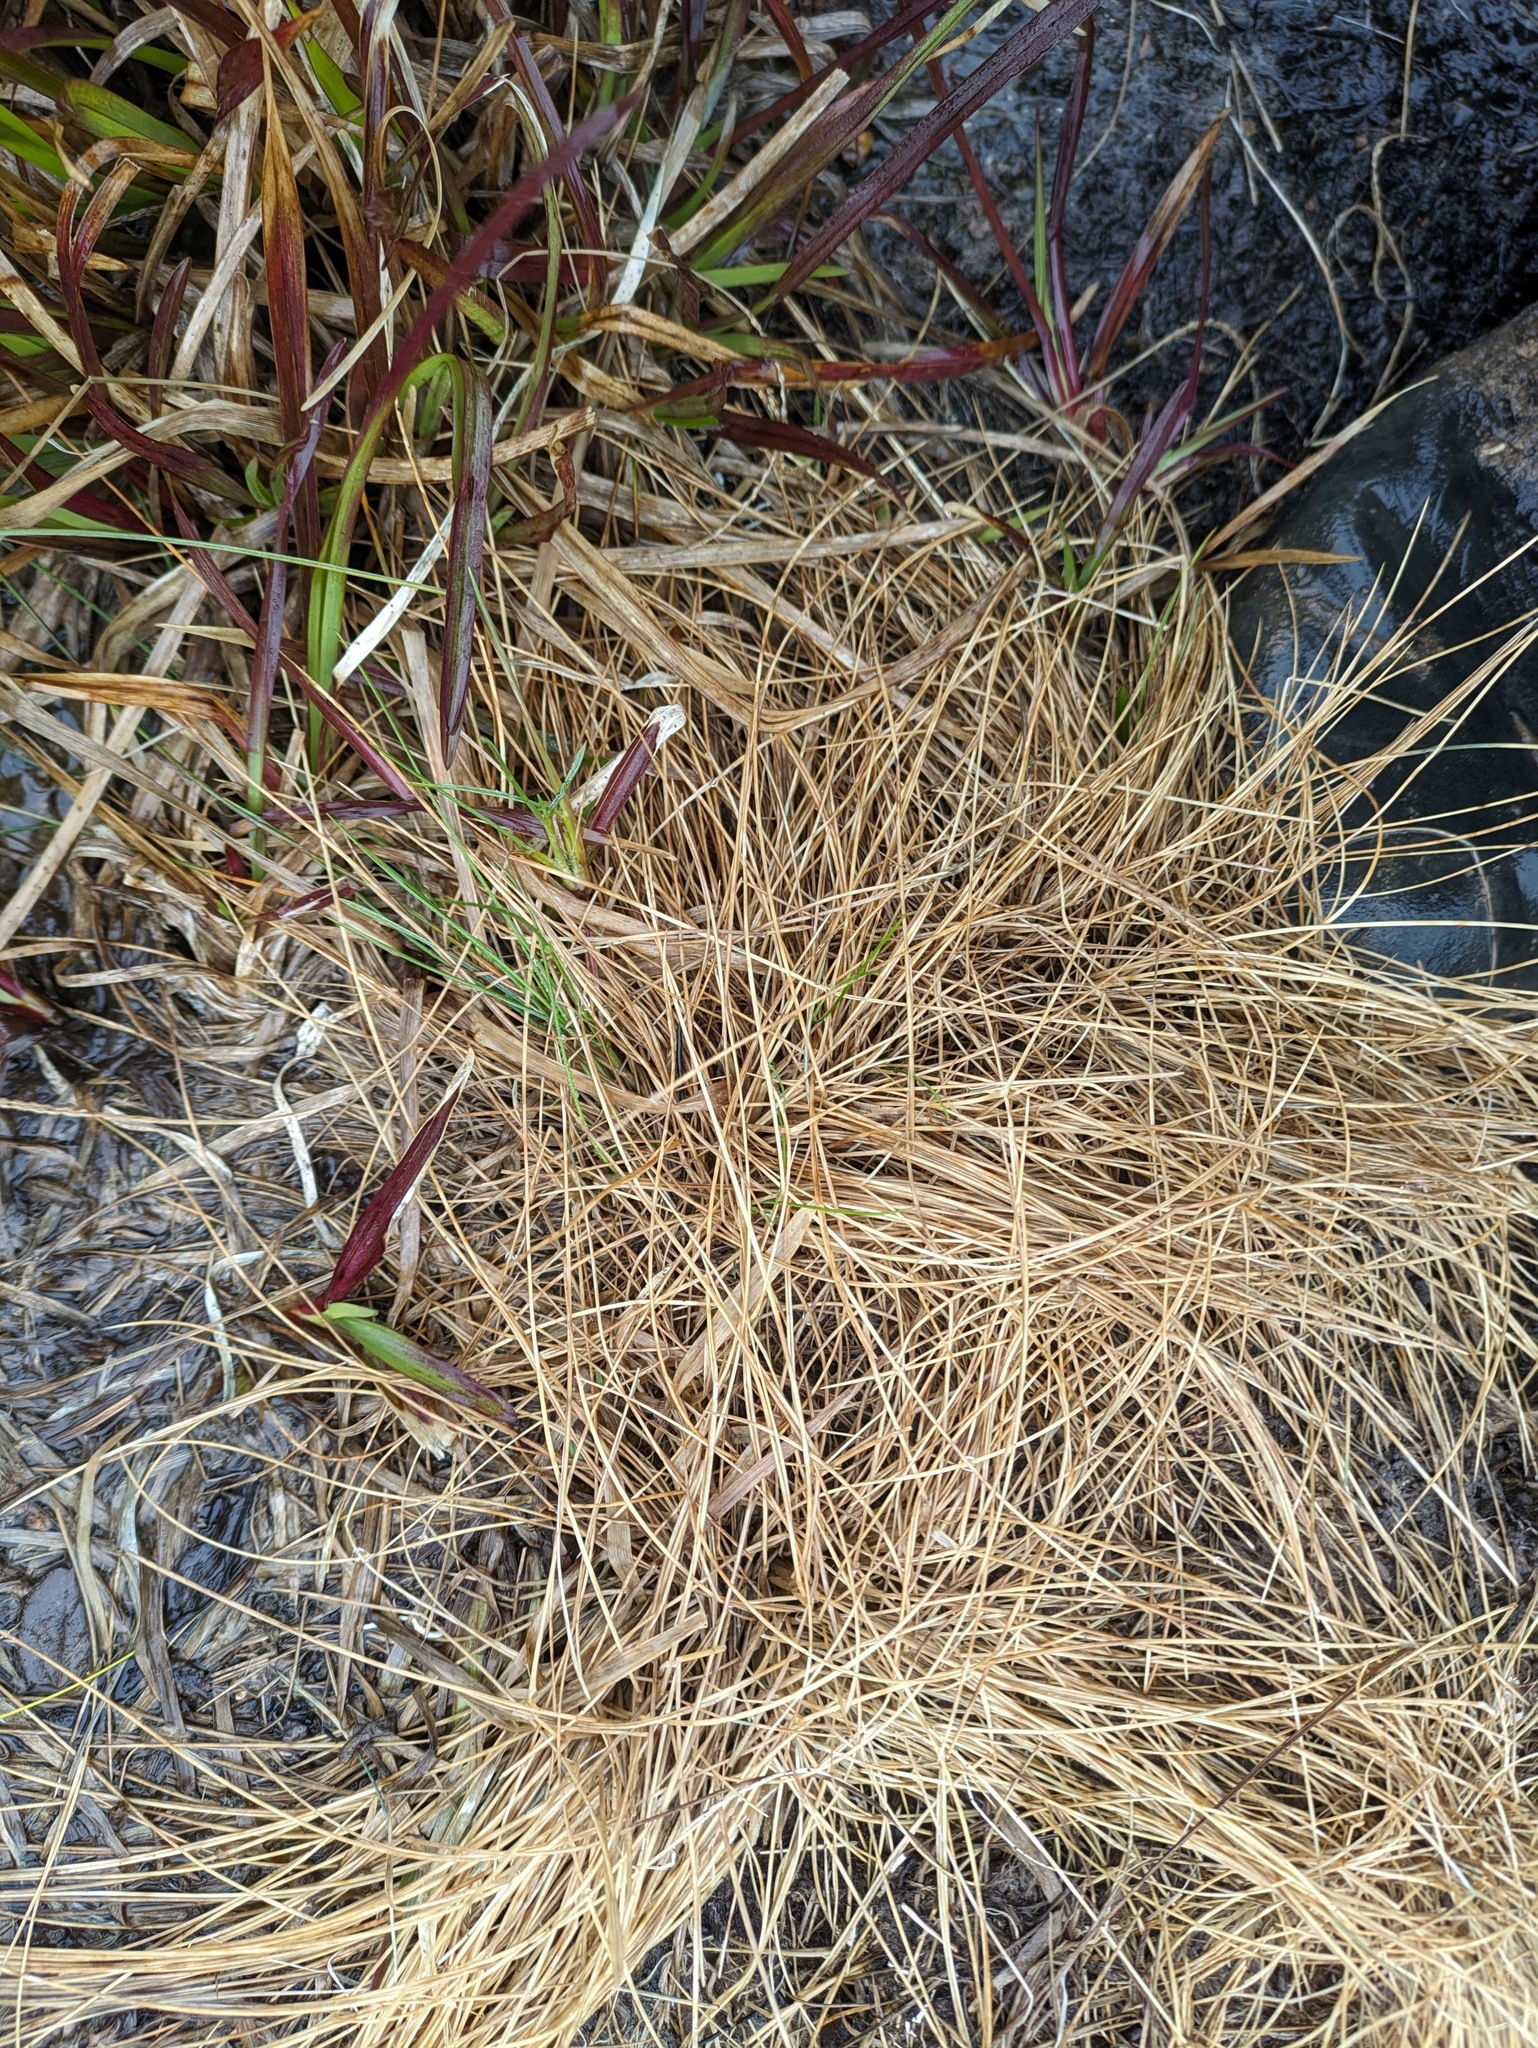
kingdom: Plantae
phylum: Tracheophyta
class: Liliopsida
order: Poales
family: Poaceae
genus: Deschampsia
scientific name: Deschampsia nubigena
